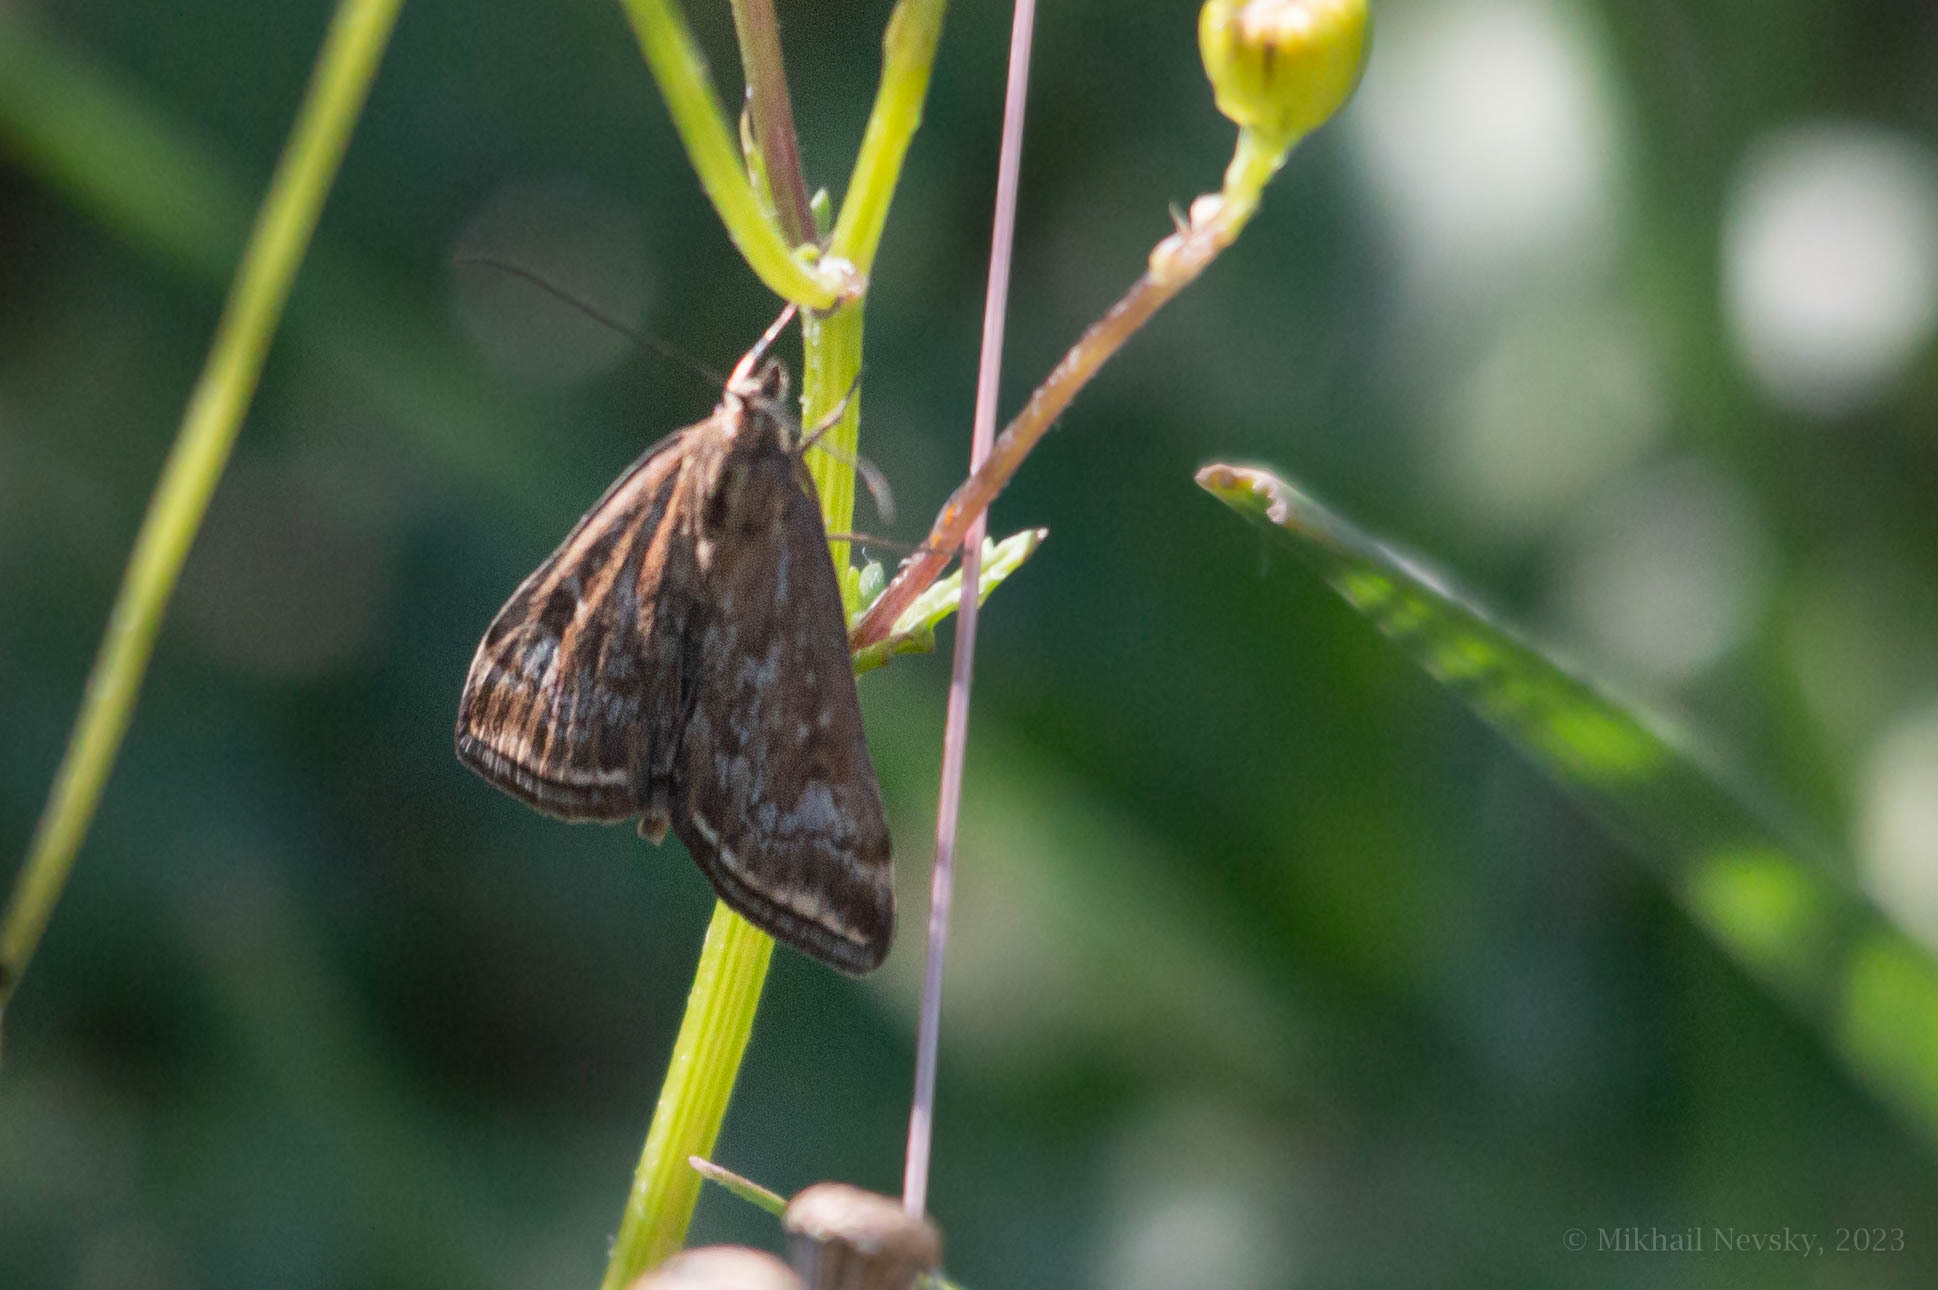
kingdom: Animalia
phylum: Arthropoda
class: Insecta
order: Lepidoptera
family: Crambidae
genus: Loxostege
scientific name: Loxostege sticticalis
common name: Crambid moth
